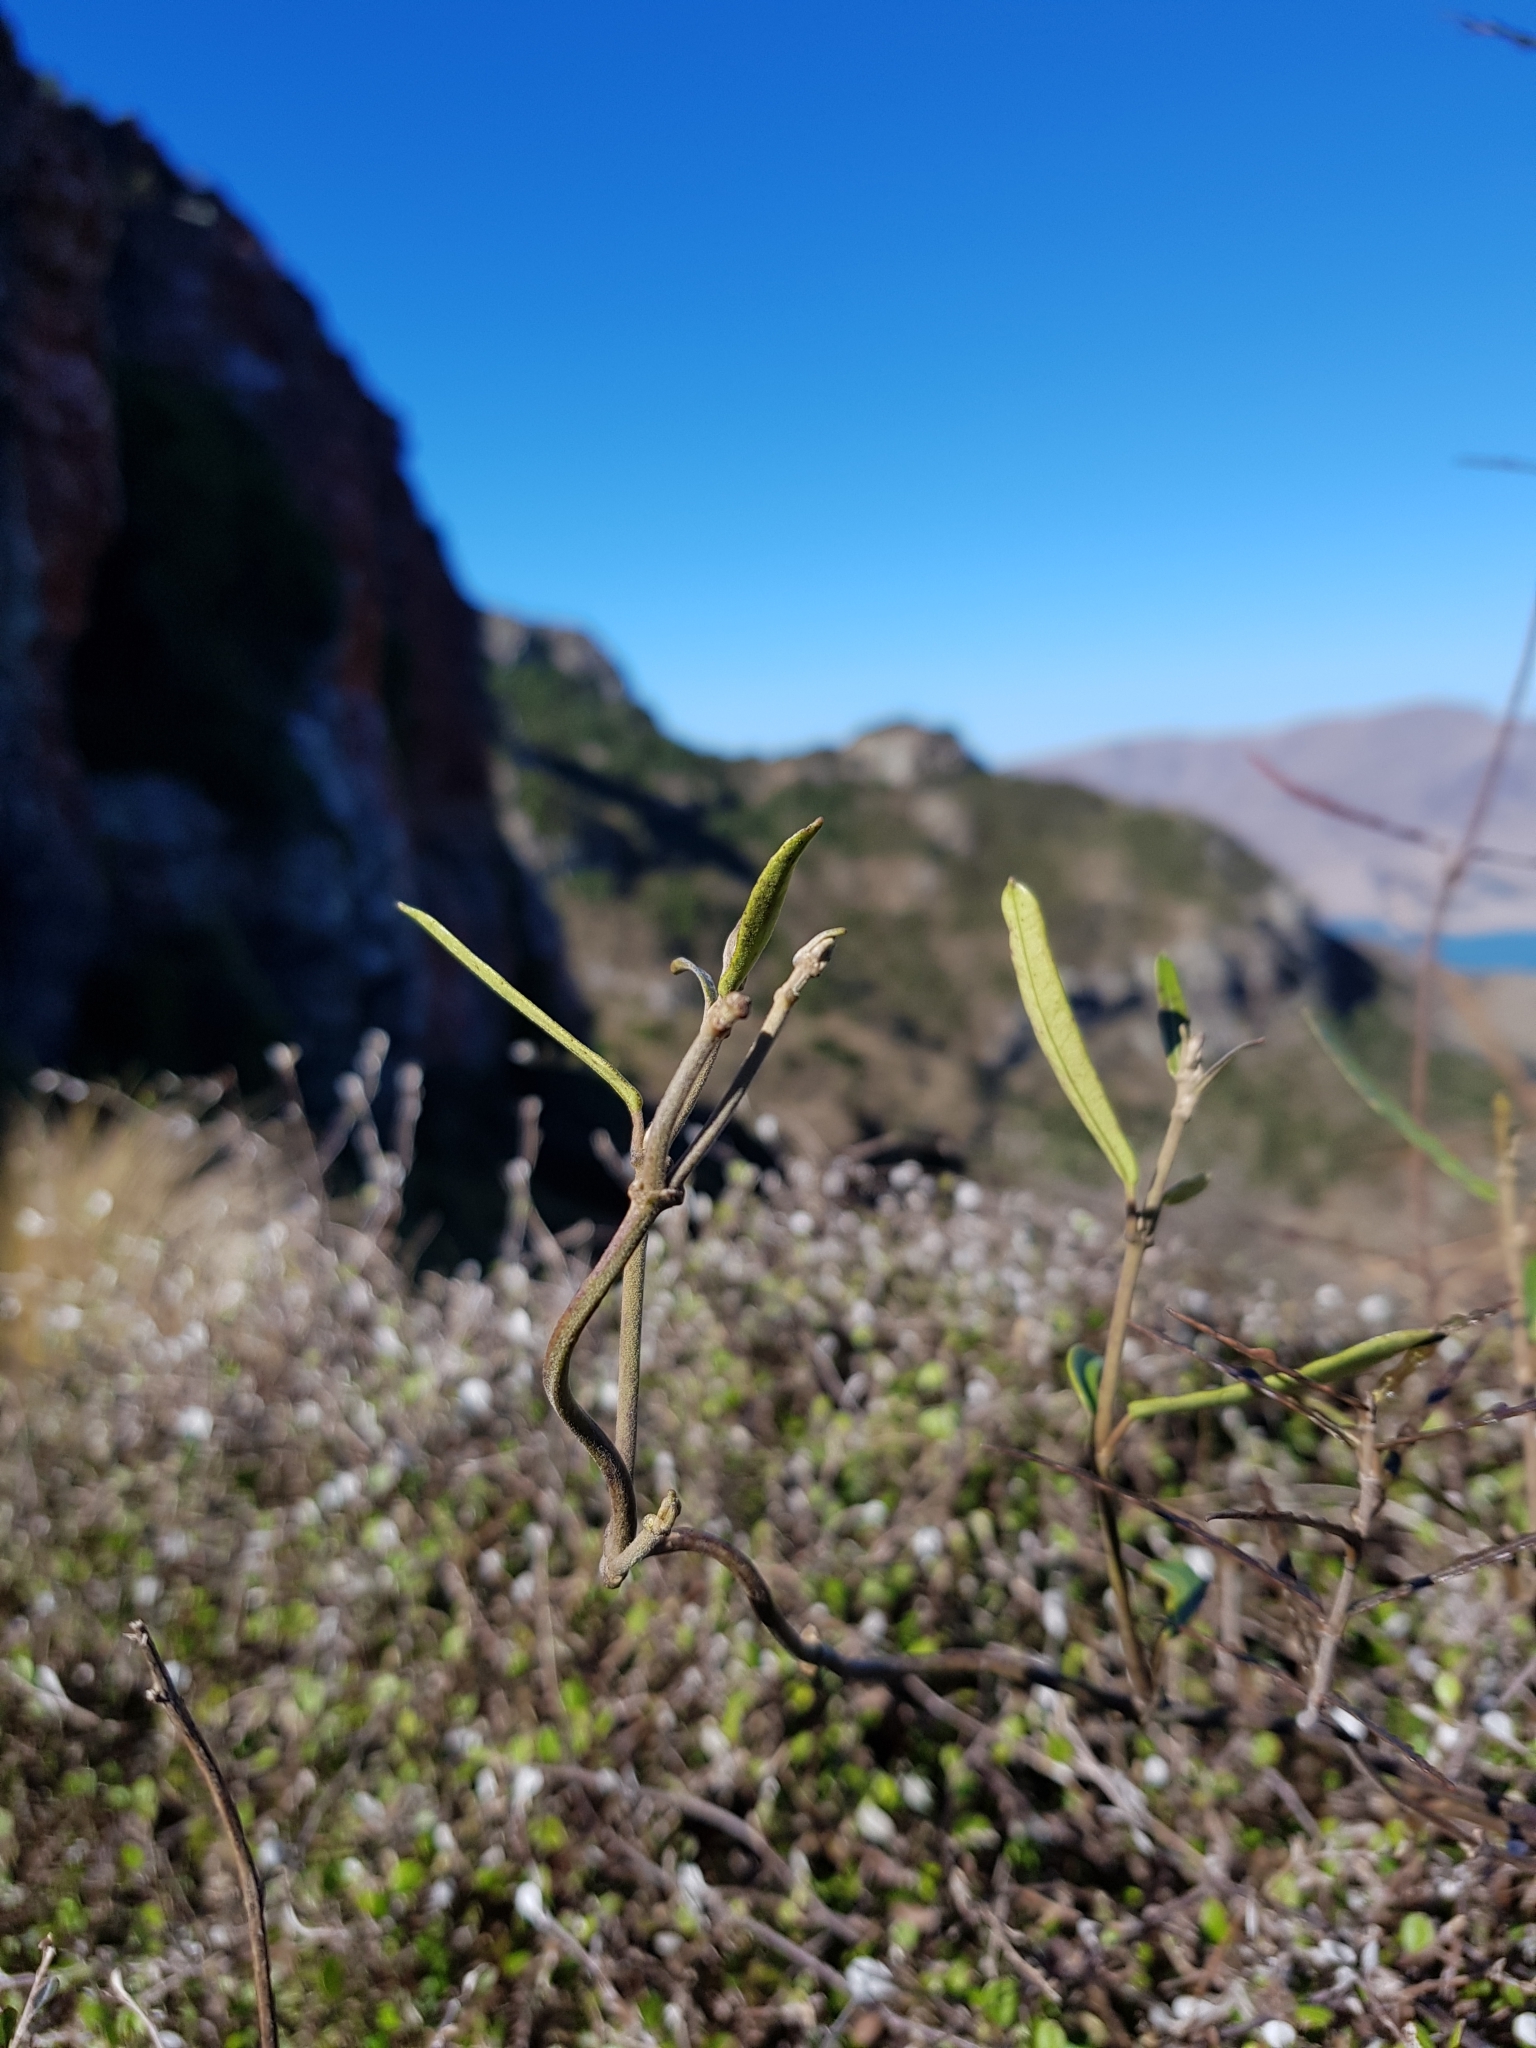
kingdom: Plantae
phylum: Tracheophyta
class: Magnoliopsida
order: Gentianales
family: Apocynaceae
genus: Parsonsia
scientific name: Parsonsia capsularis
